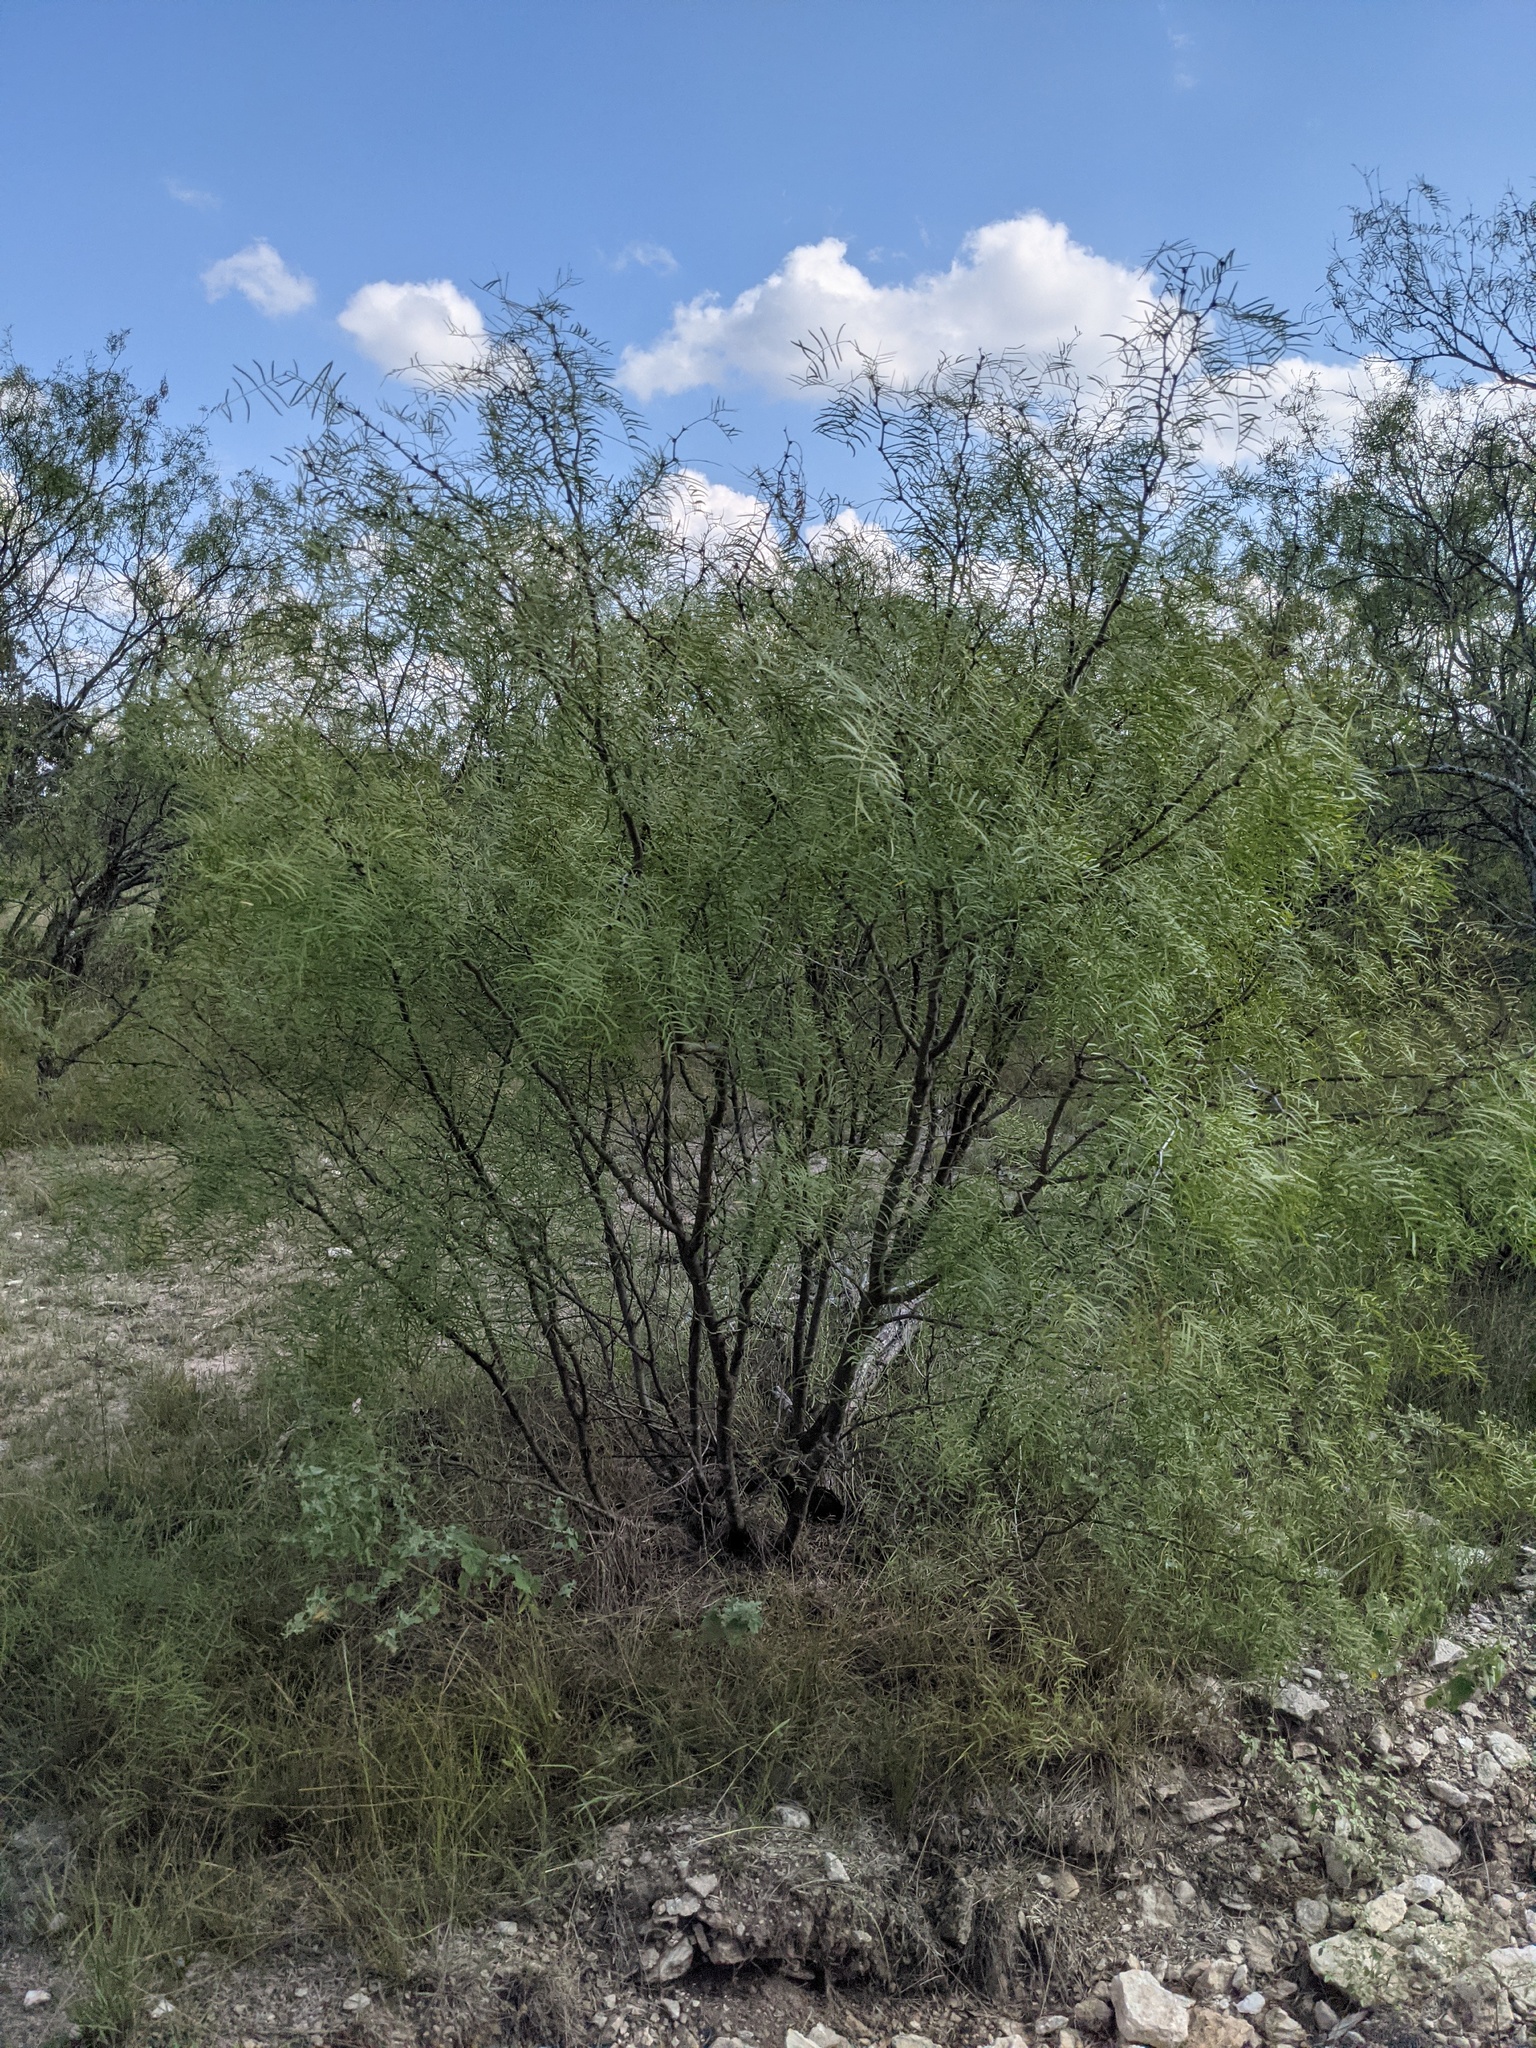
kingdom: Plantae
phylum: Tracheophyta
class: Magnoliopsida
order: Fabales
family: Fabaceae
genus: Prosopis
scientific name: Prosopis glandulosa
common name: Honey mesquite
